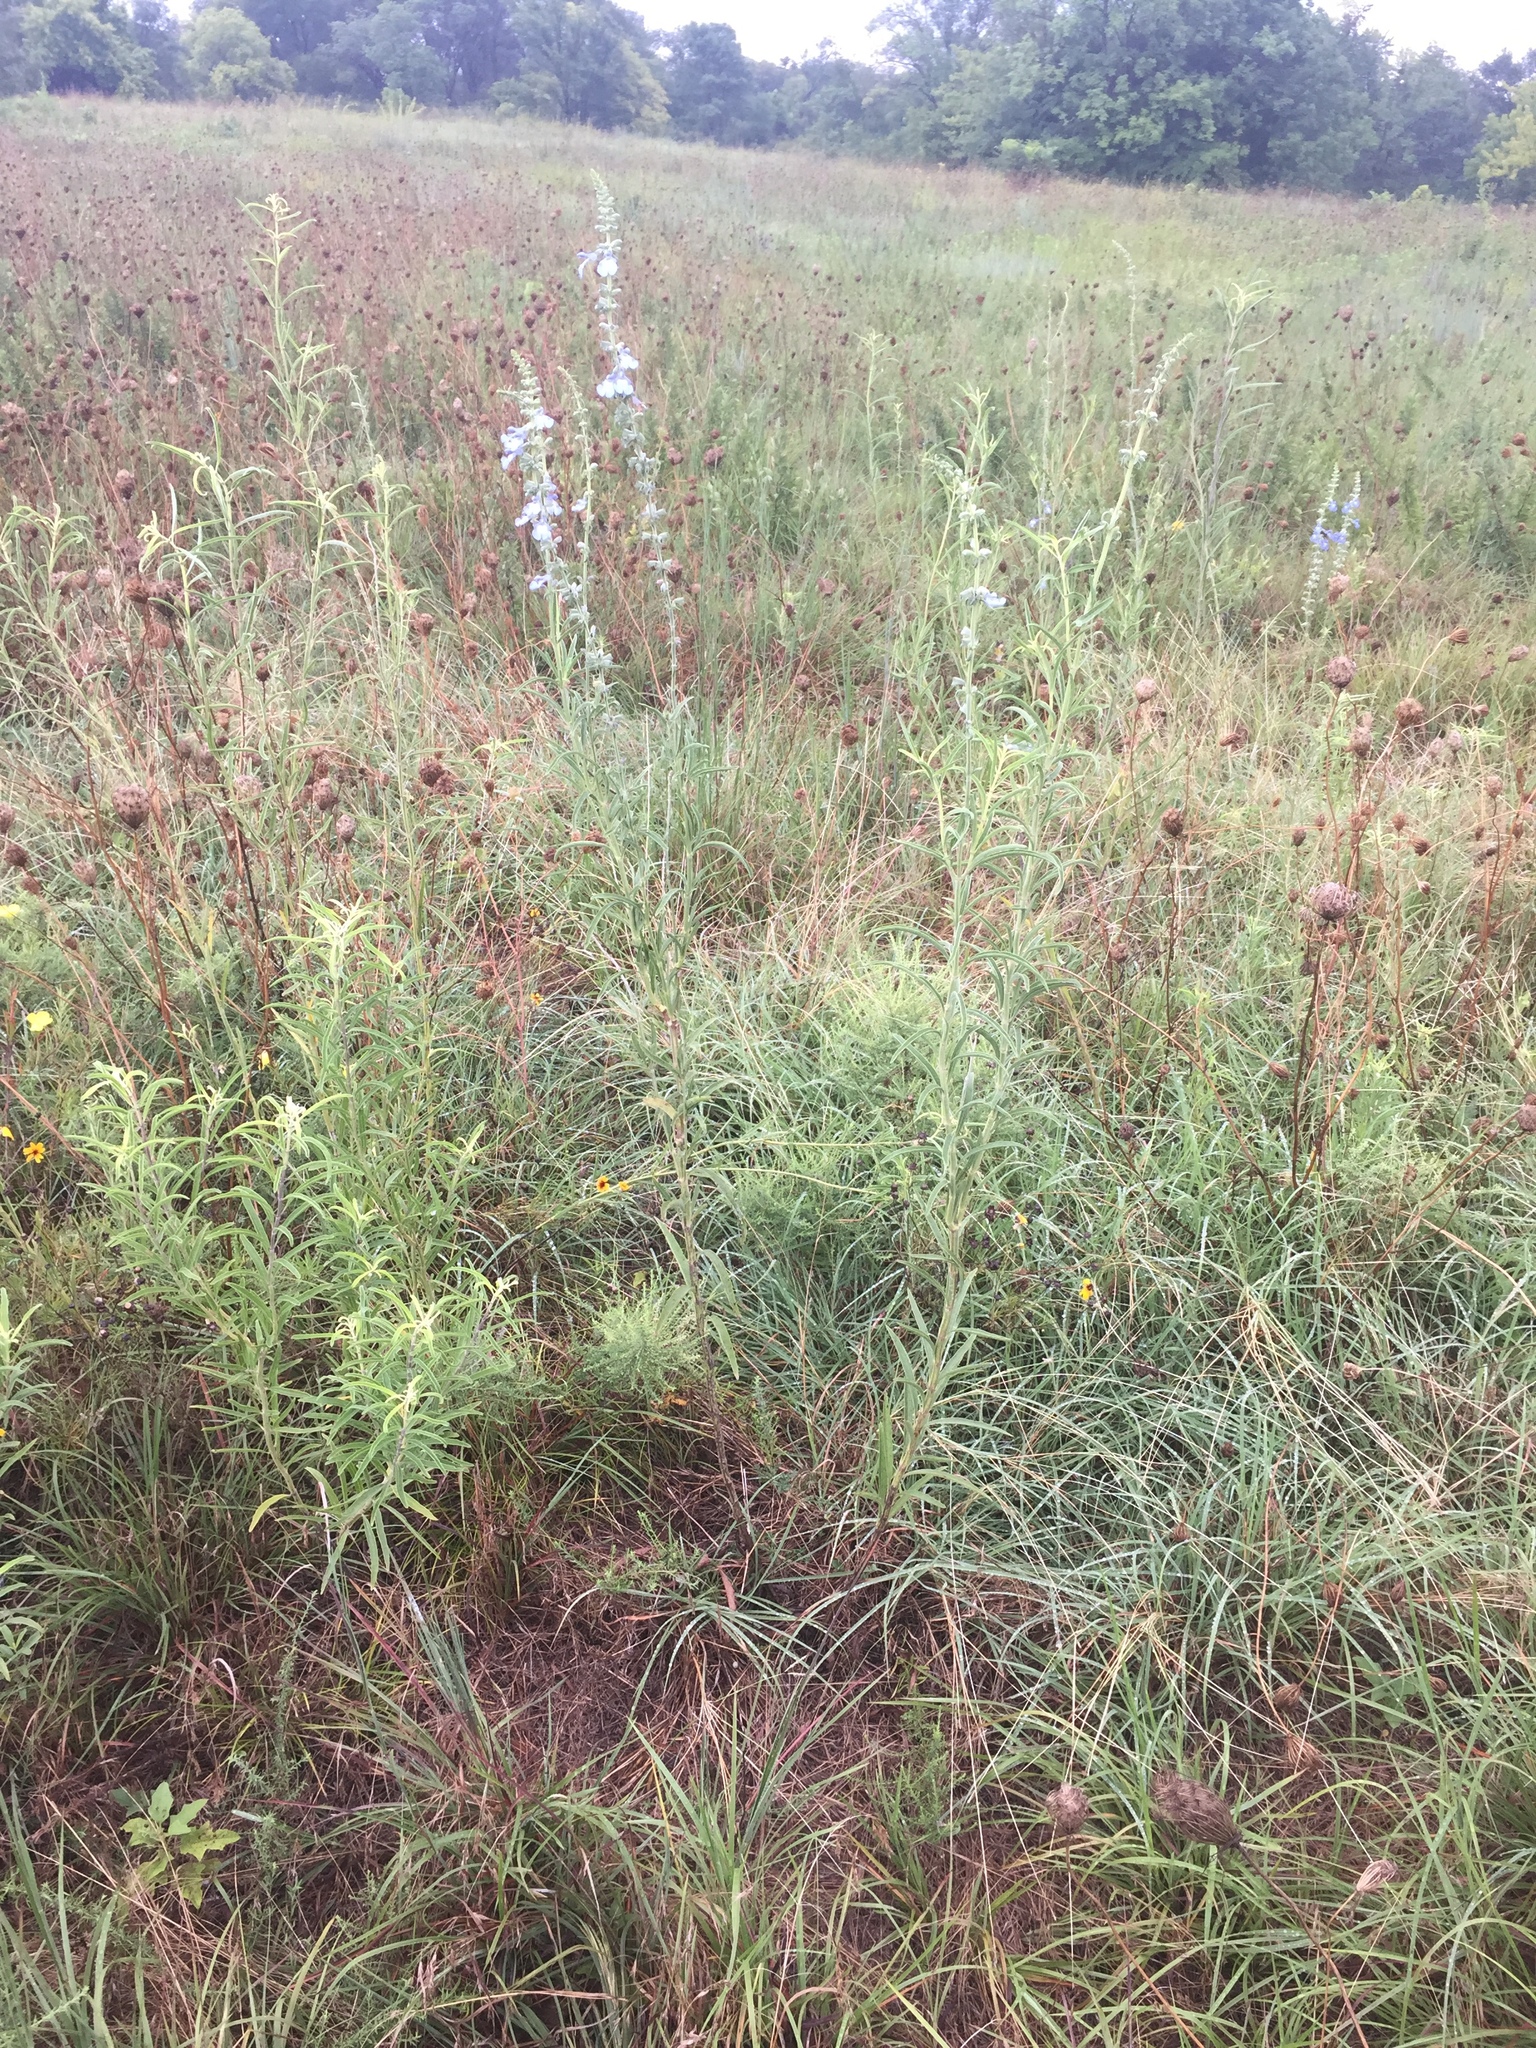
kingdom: Plantae
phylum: Tracheophyta
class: Magnoliopsida
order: Lamiales
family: Lamiaceae
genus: Salvia
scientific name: Salvia azurea
